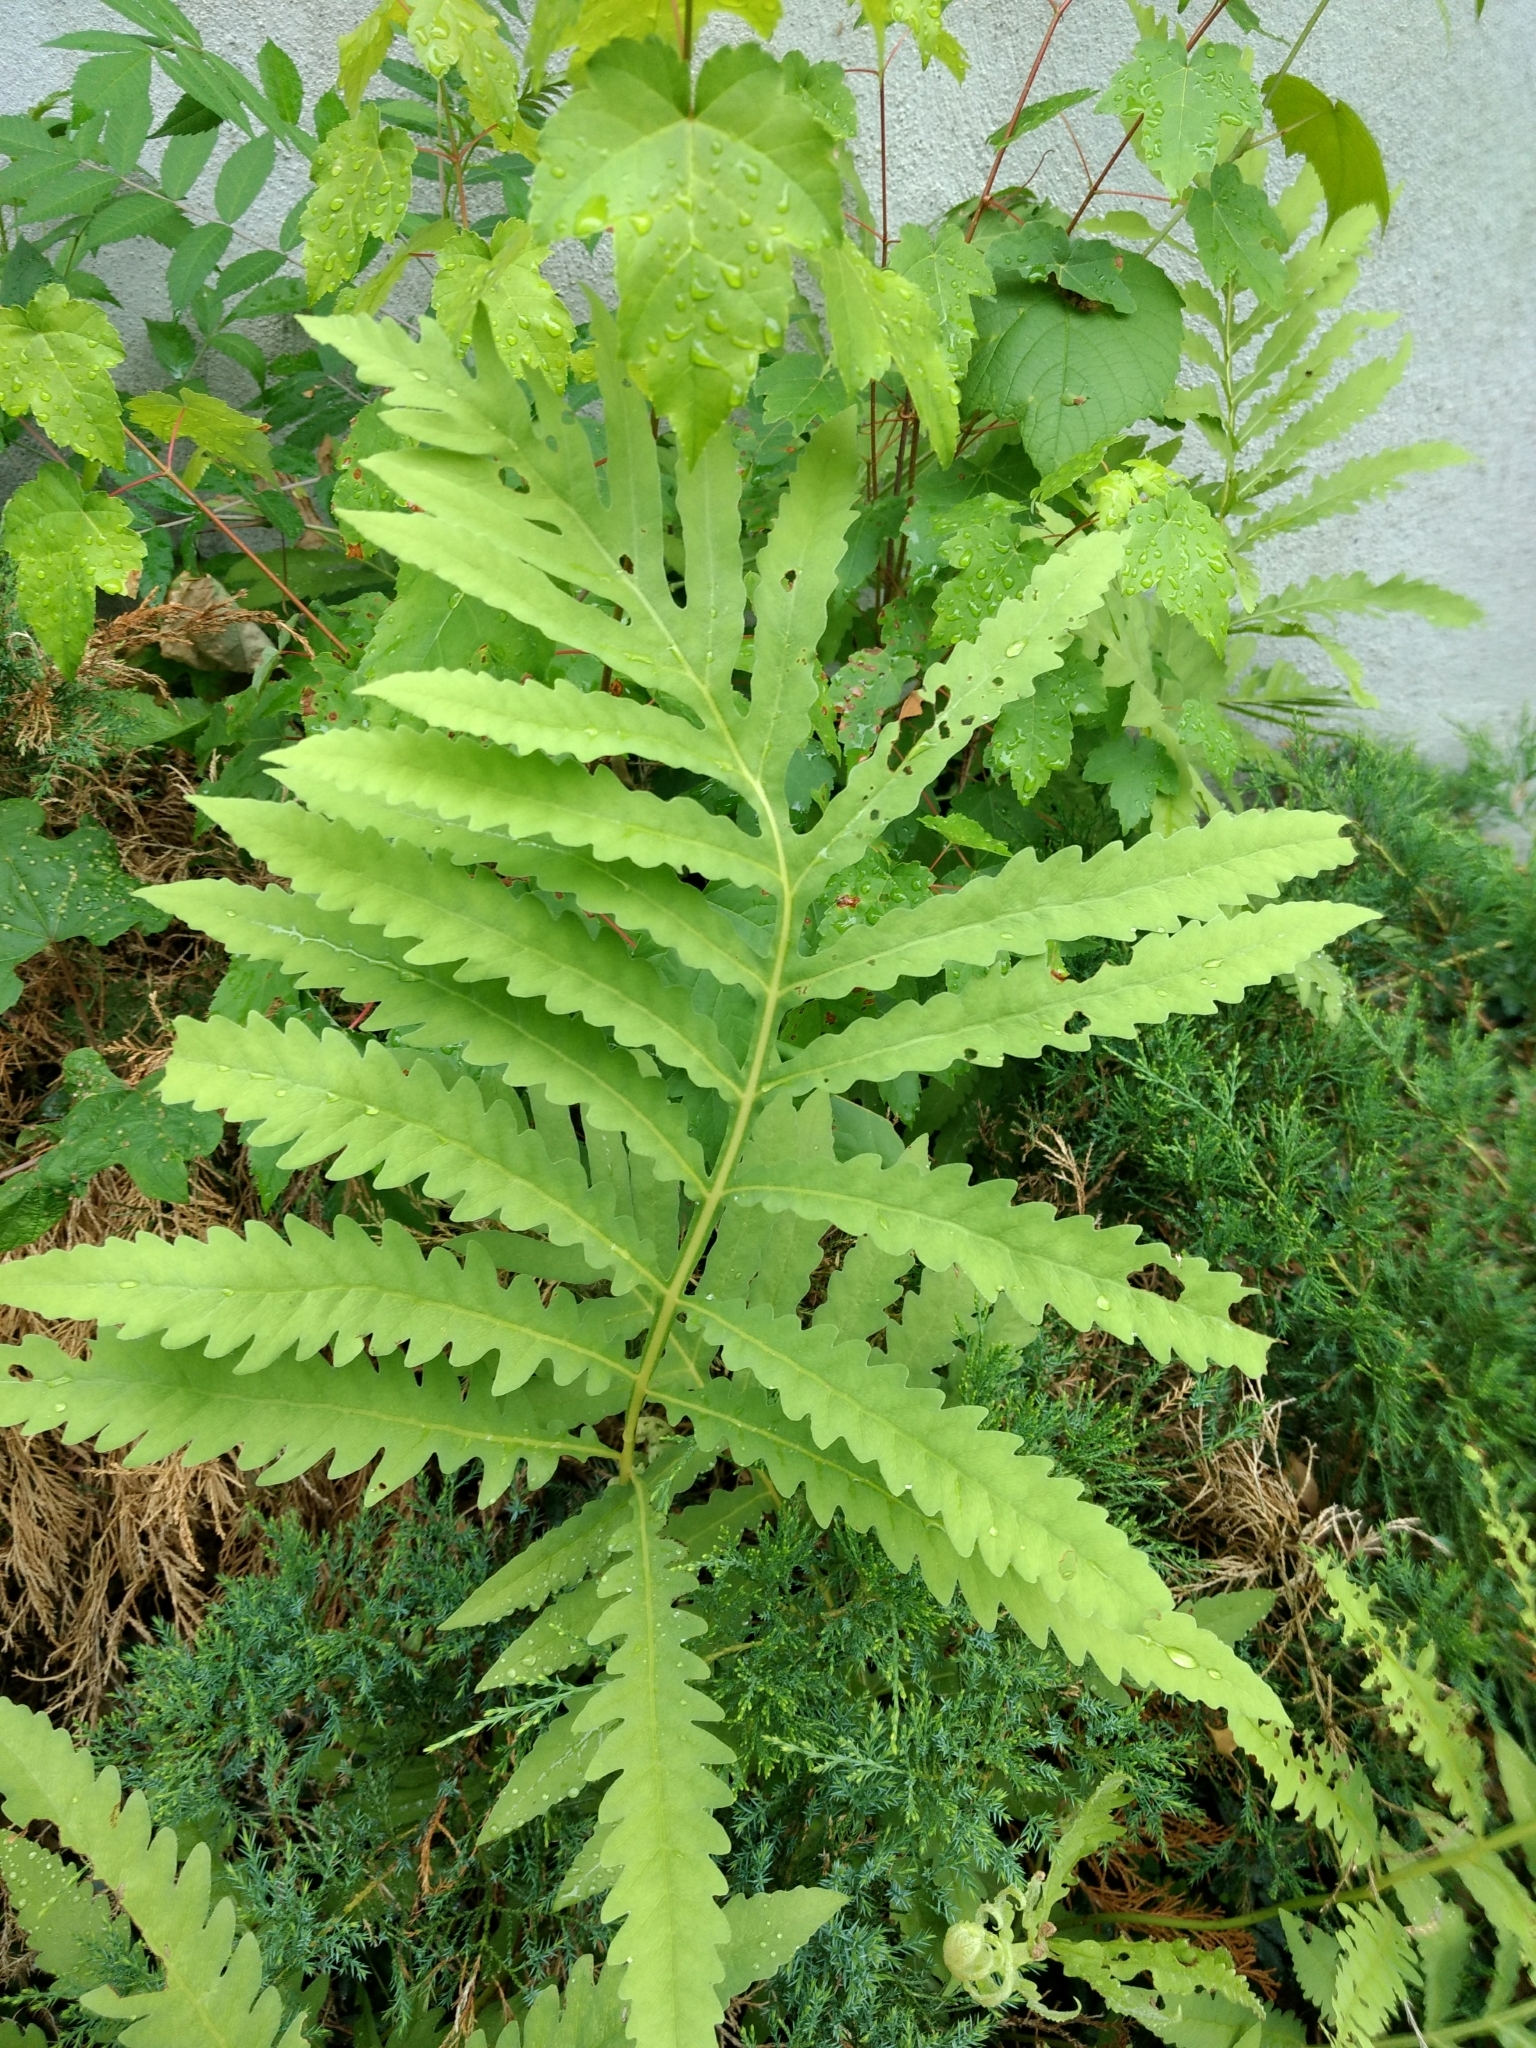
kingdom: Plantae
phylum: Tracheophyta
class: Polypodiopsida
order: Polypodiales
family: Onocleaceae
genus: Onoclea
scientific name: Onoclea sensibilis
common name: Sensitive fern
